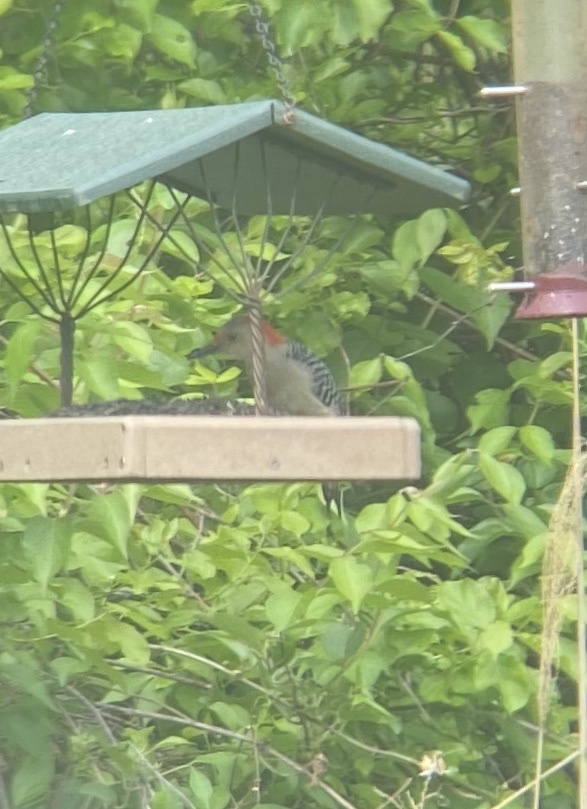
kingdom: Animalia
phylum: Chordata
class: Aves
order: Piciformes
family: Picidae
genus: Melanerpes
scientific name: Melanerpes carolinus
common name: Red-bellied woodpecker
